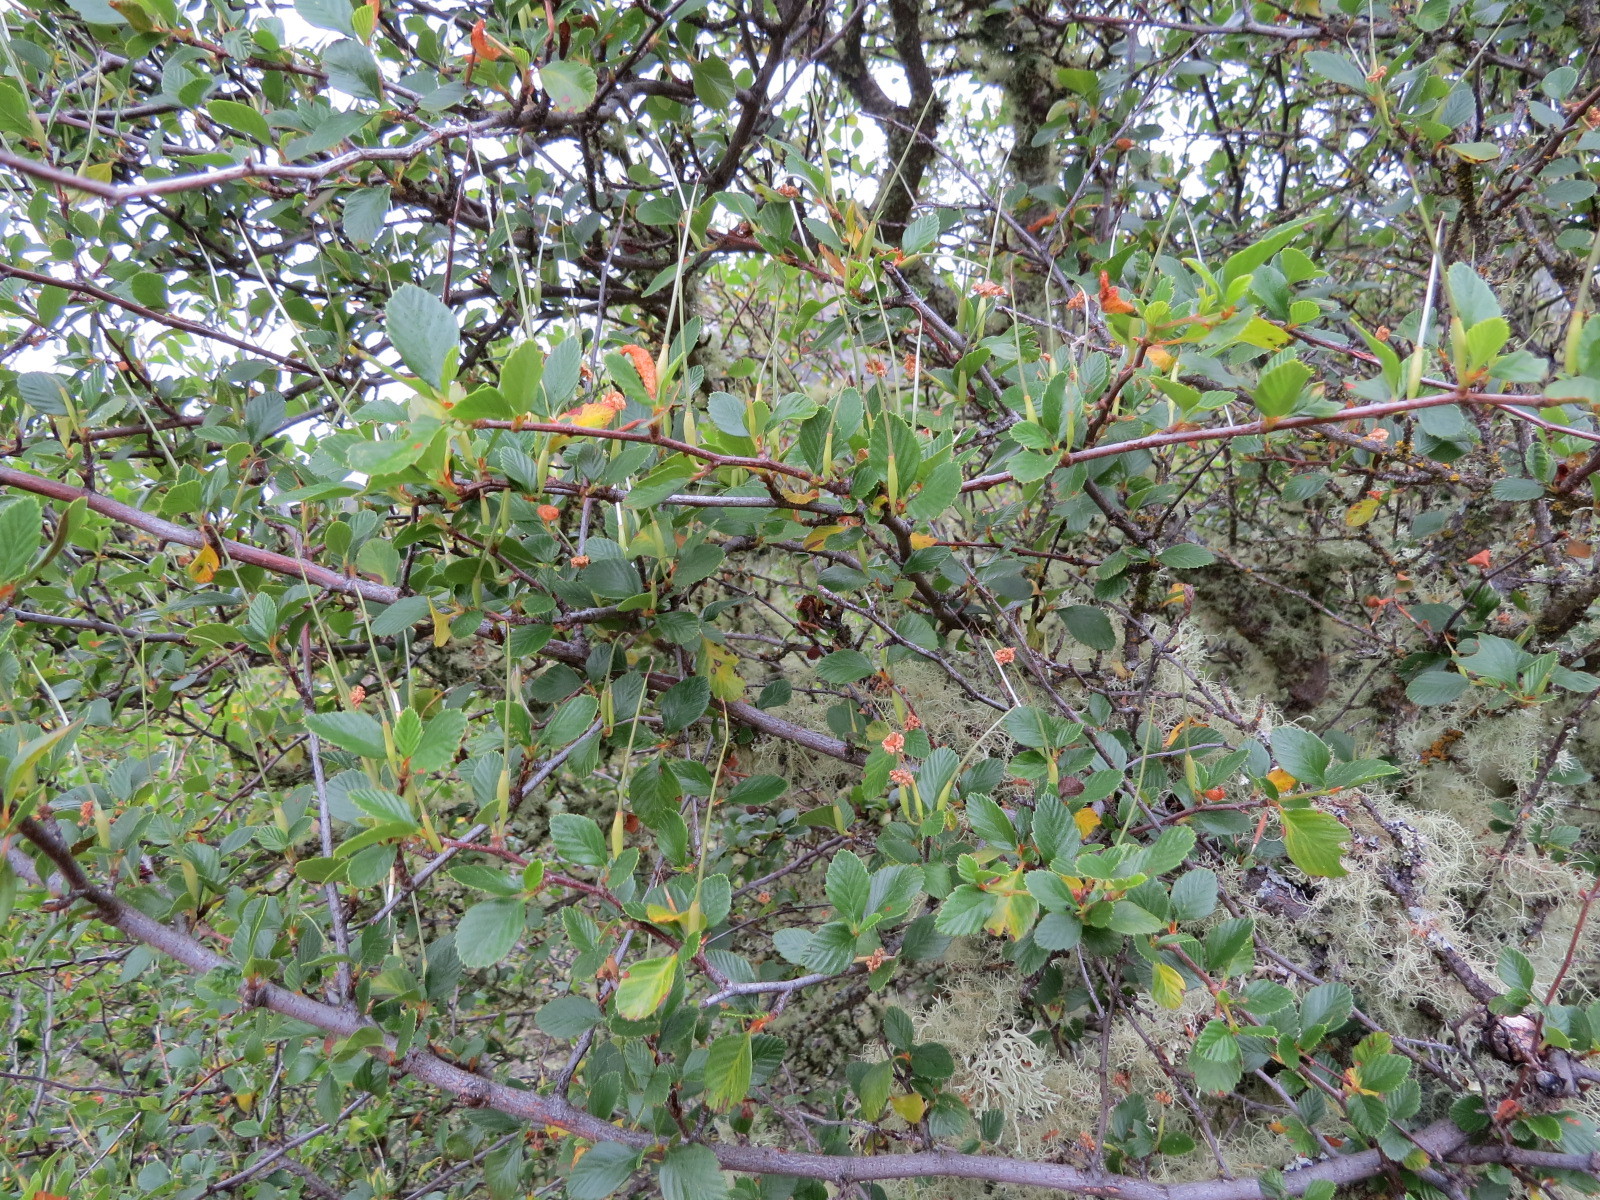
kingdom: Plantae
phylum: Tracheophyta
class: Magnoliopsida
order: Rosales
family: Rosaceae
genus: Cercocarpus
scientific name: Cercocarpus betuloides
